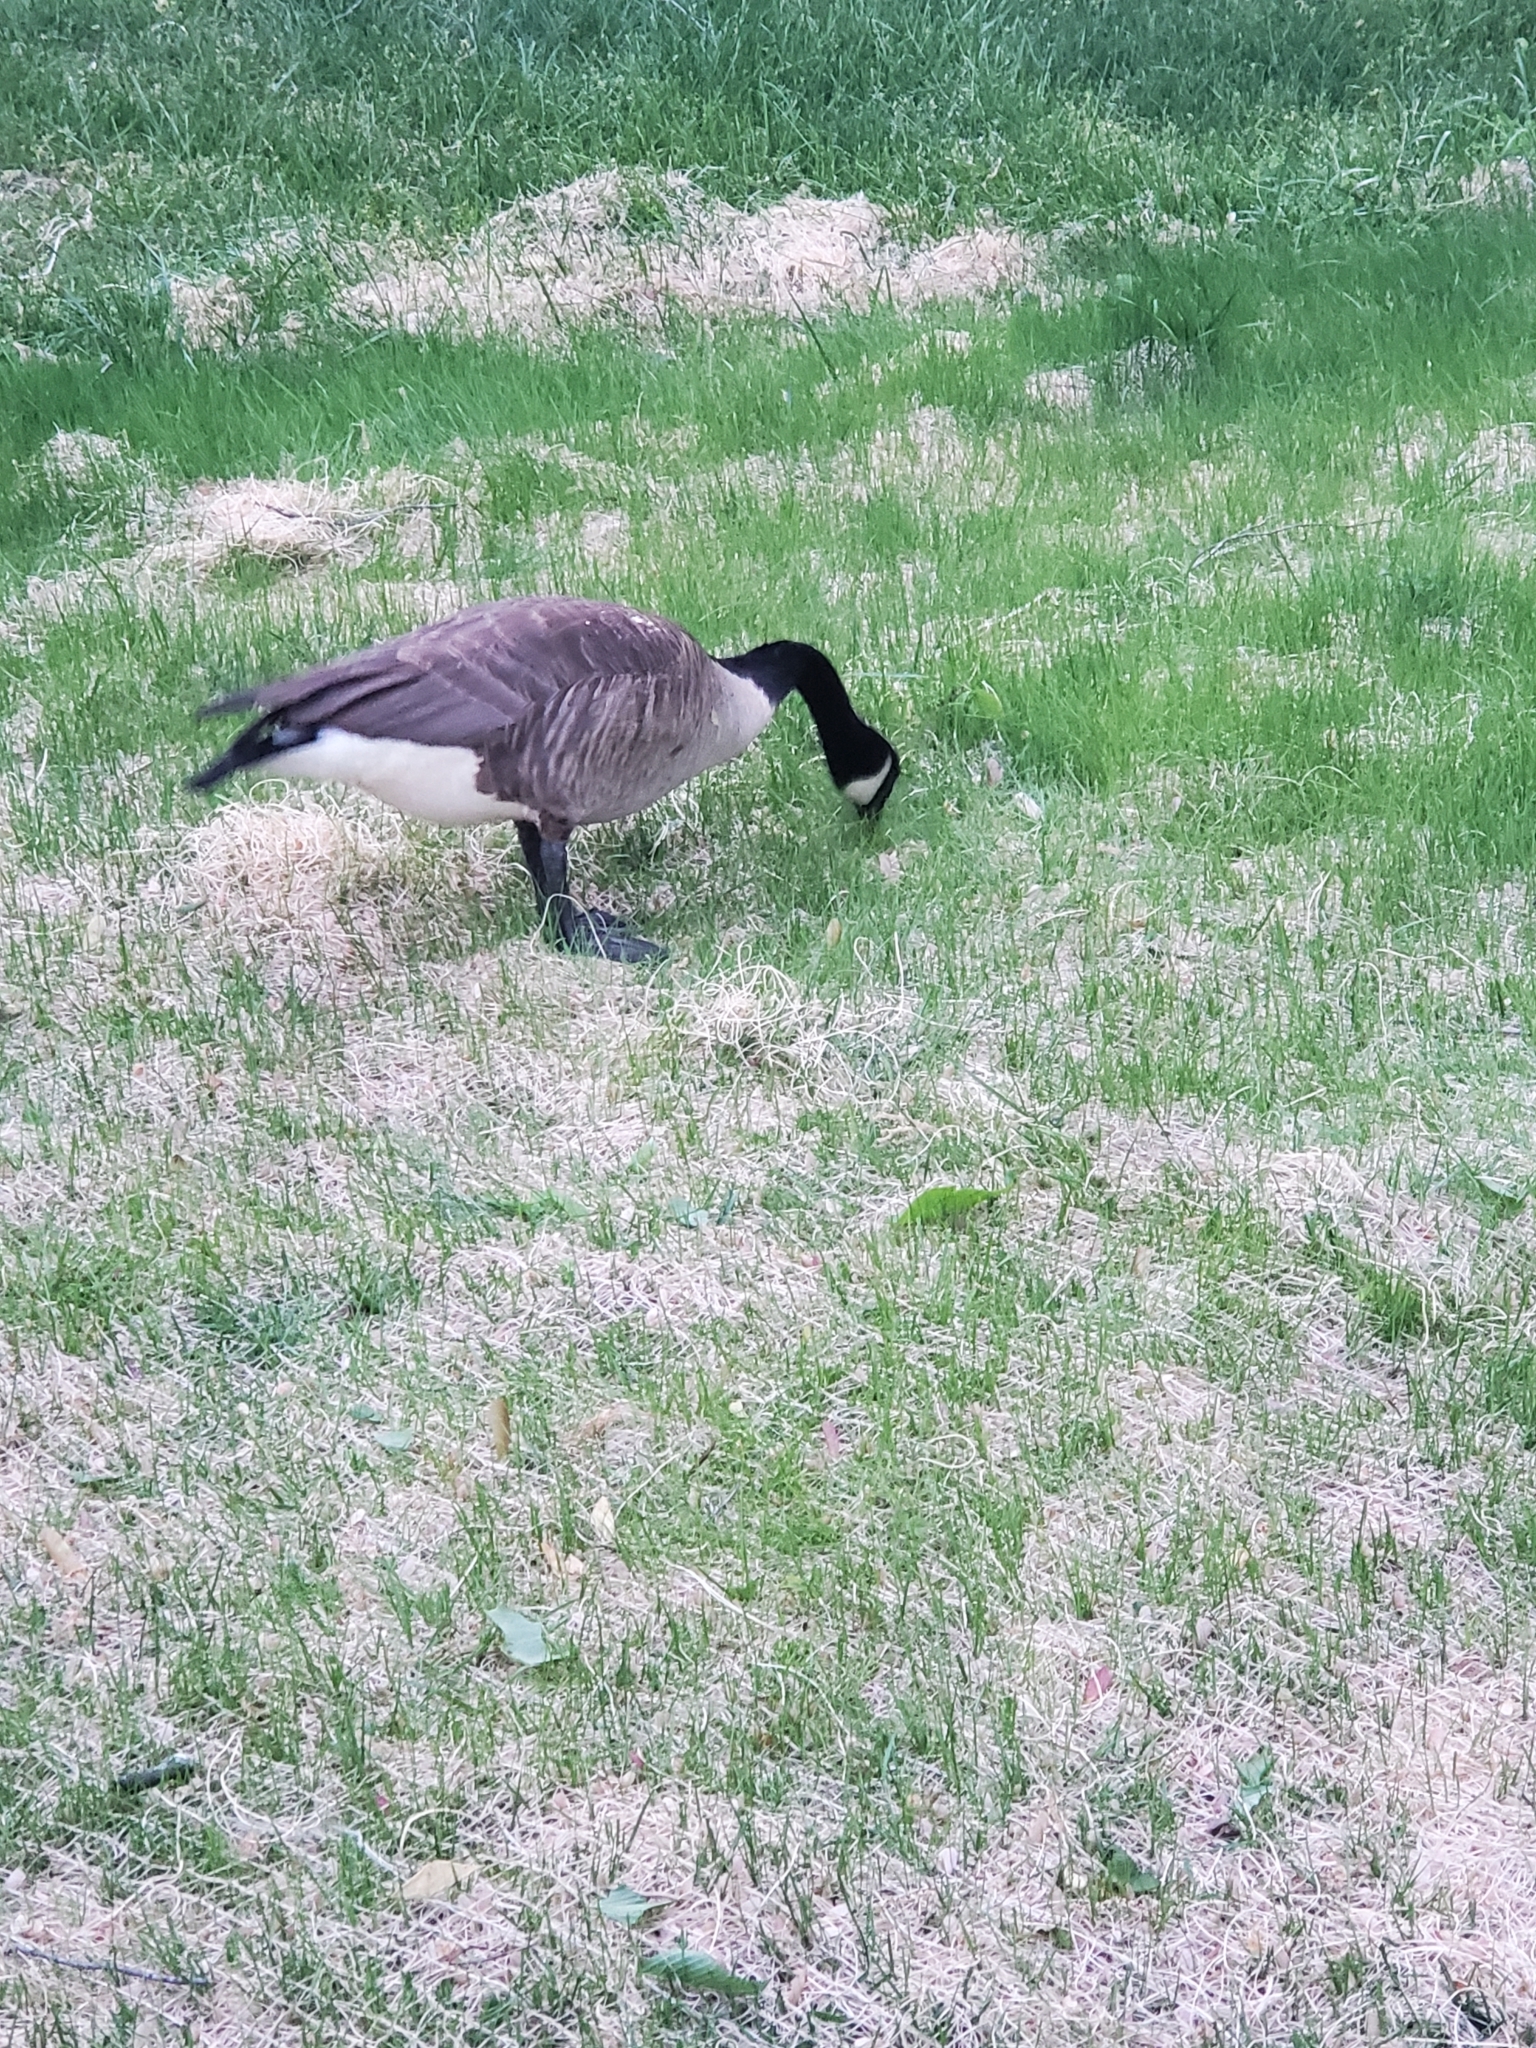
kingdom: Animalia
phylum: Chordata
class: Aves
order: Anseriformes
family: Anatidae
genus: Branta
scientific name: Branta canadensis
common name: Canada goose
